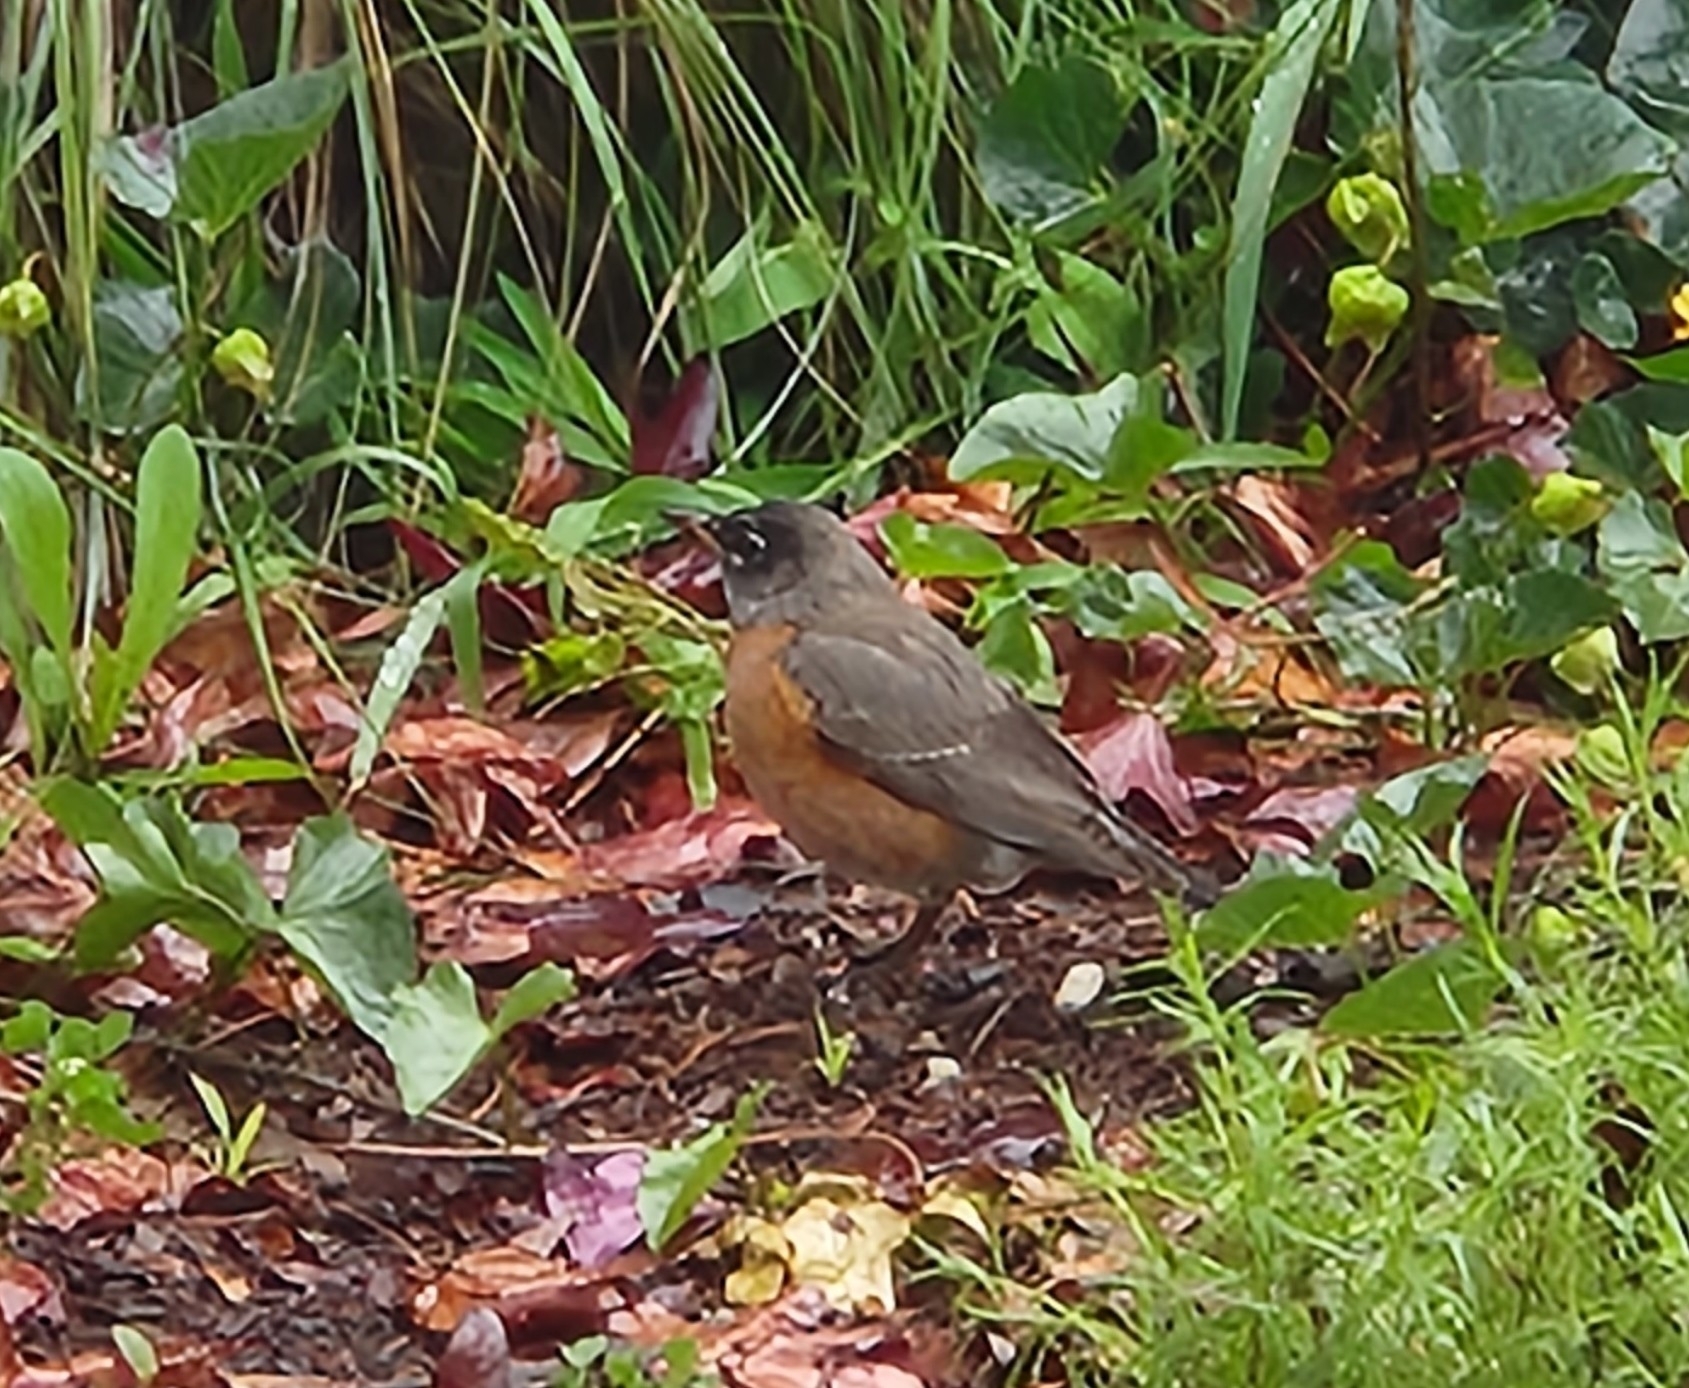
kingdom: Animalia
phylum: Chordata
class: Aves
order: Passeriformes
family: Turdidae
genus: Turdus
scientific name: Turdus migratorius
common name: American robin
